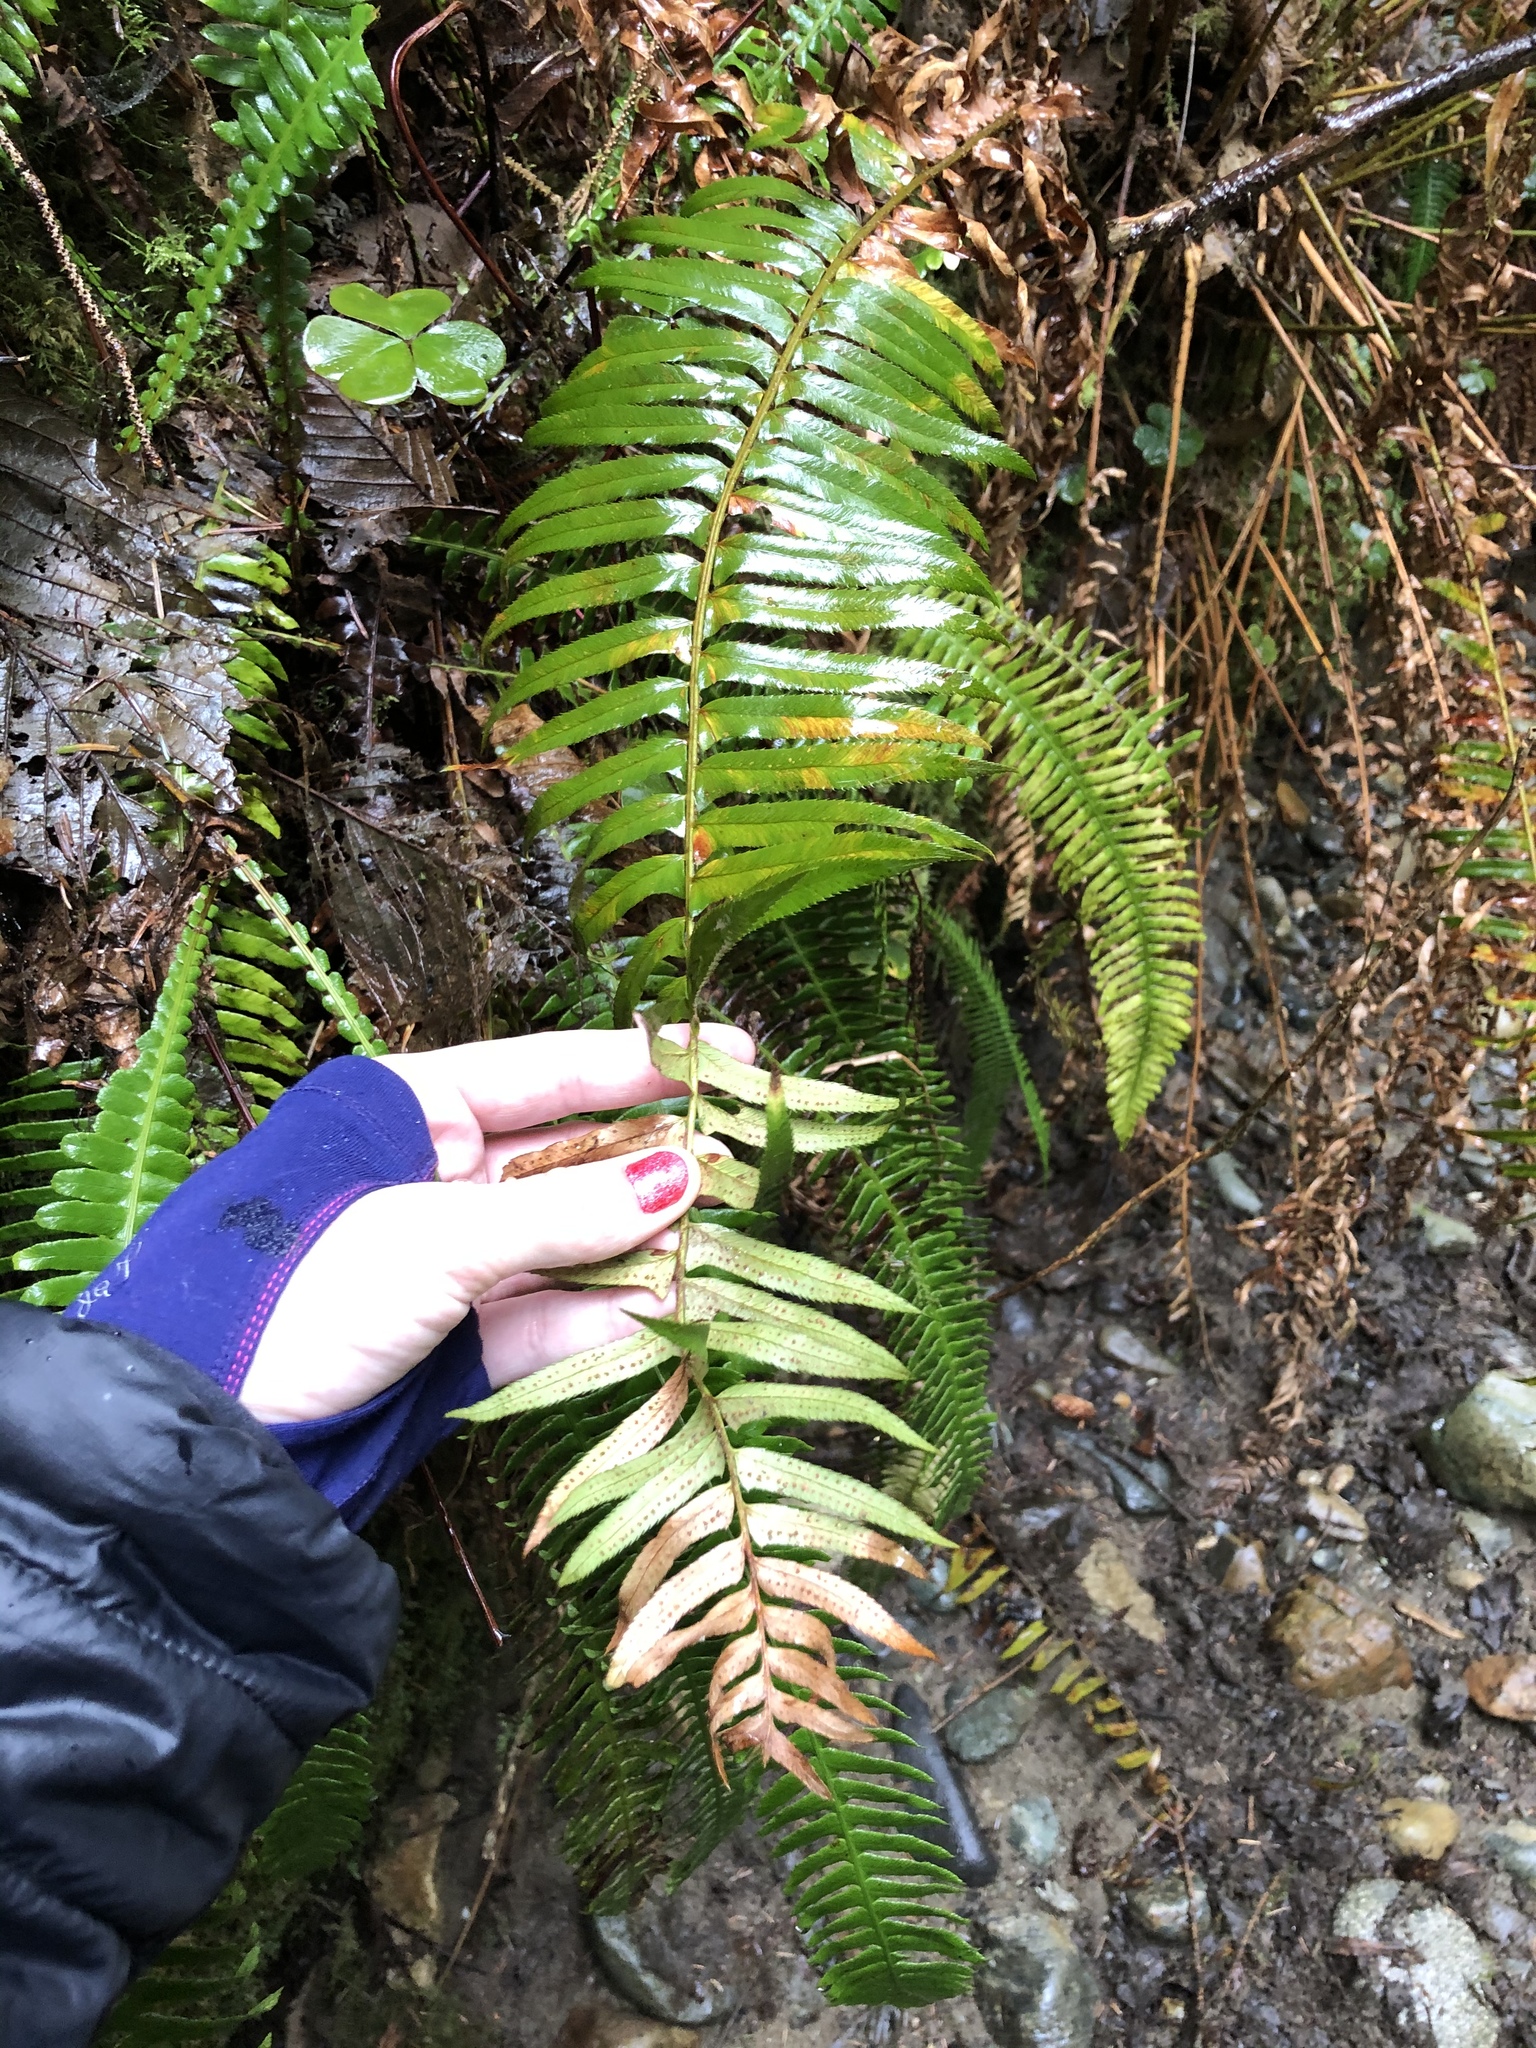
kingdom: Plantae
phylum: Tracheophyta
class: Polypodiopsida
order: Polypodiales
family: Dryopteridaceae
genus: Polystichum
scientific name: Polystichum munitum
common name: Western sword-fern
